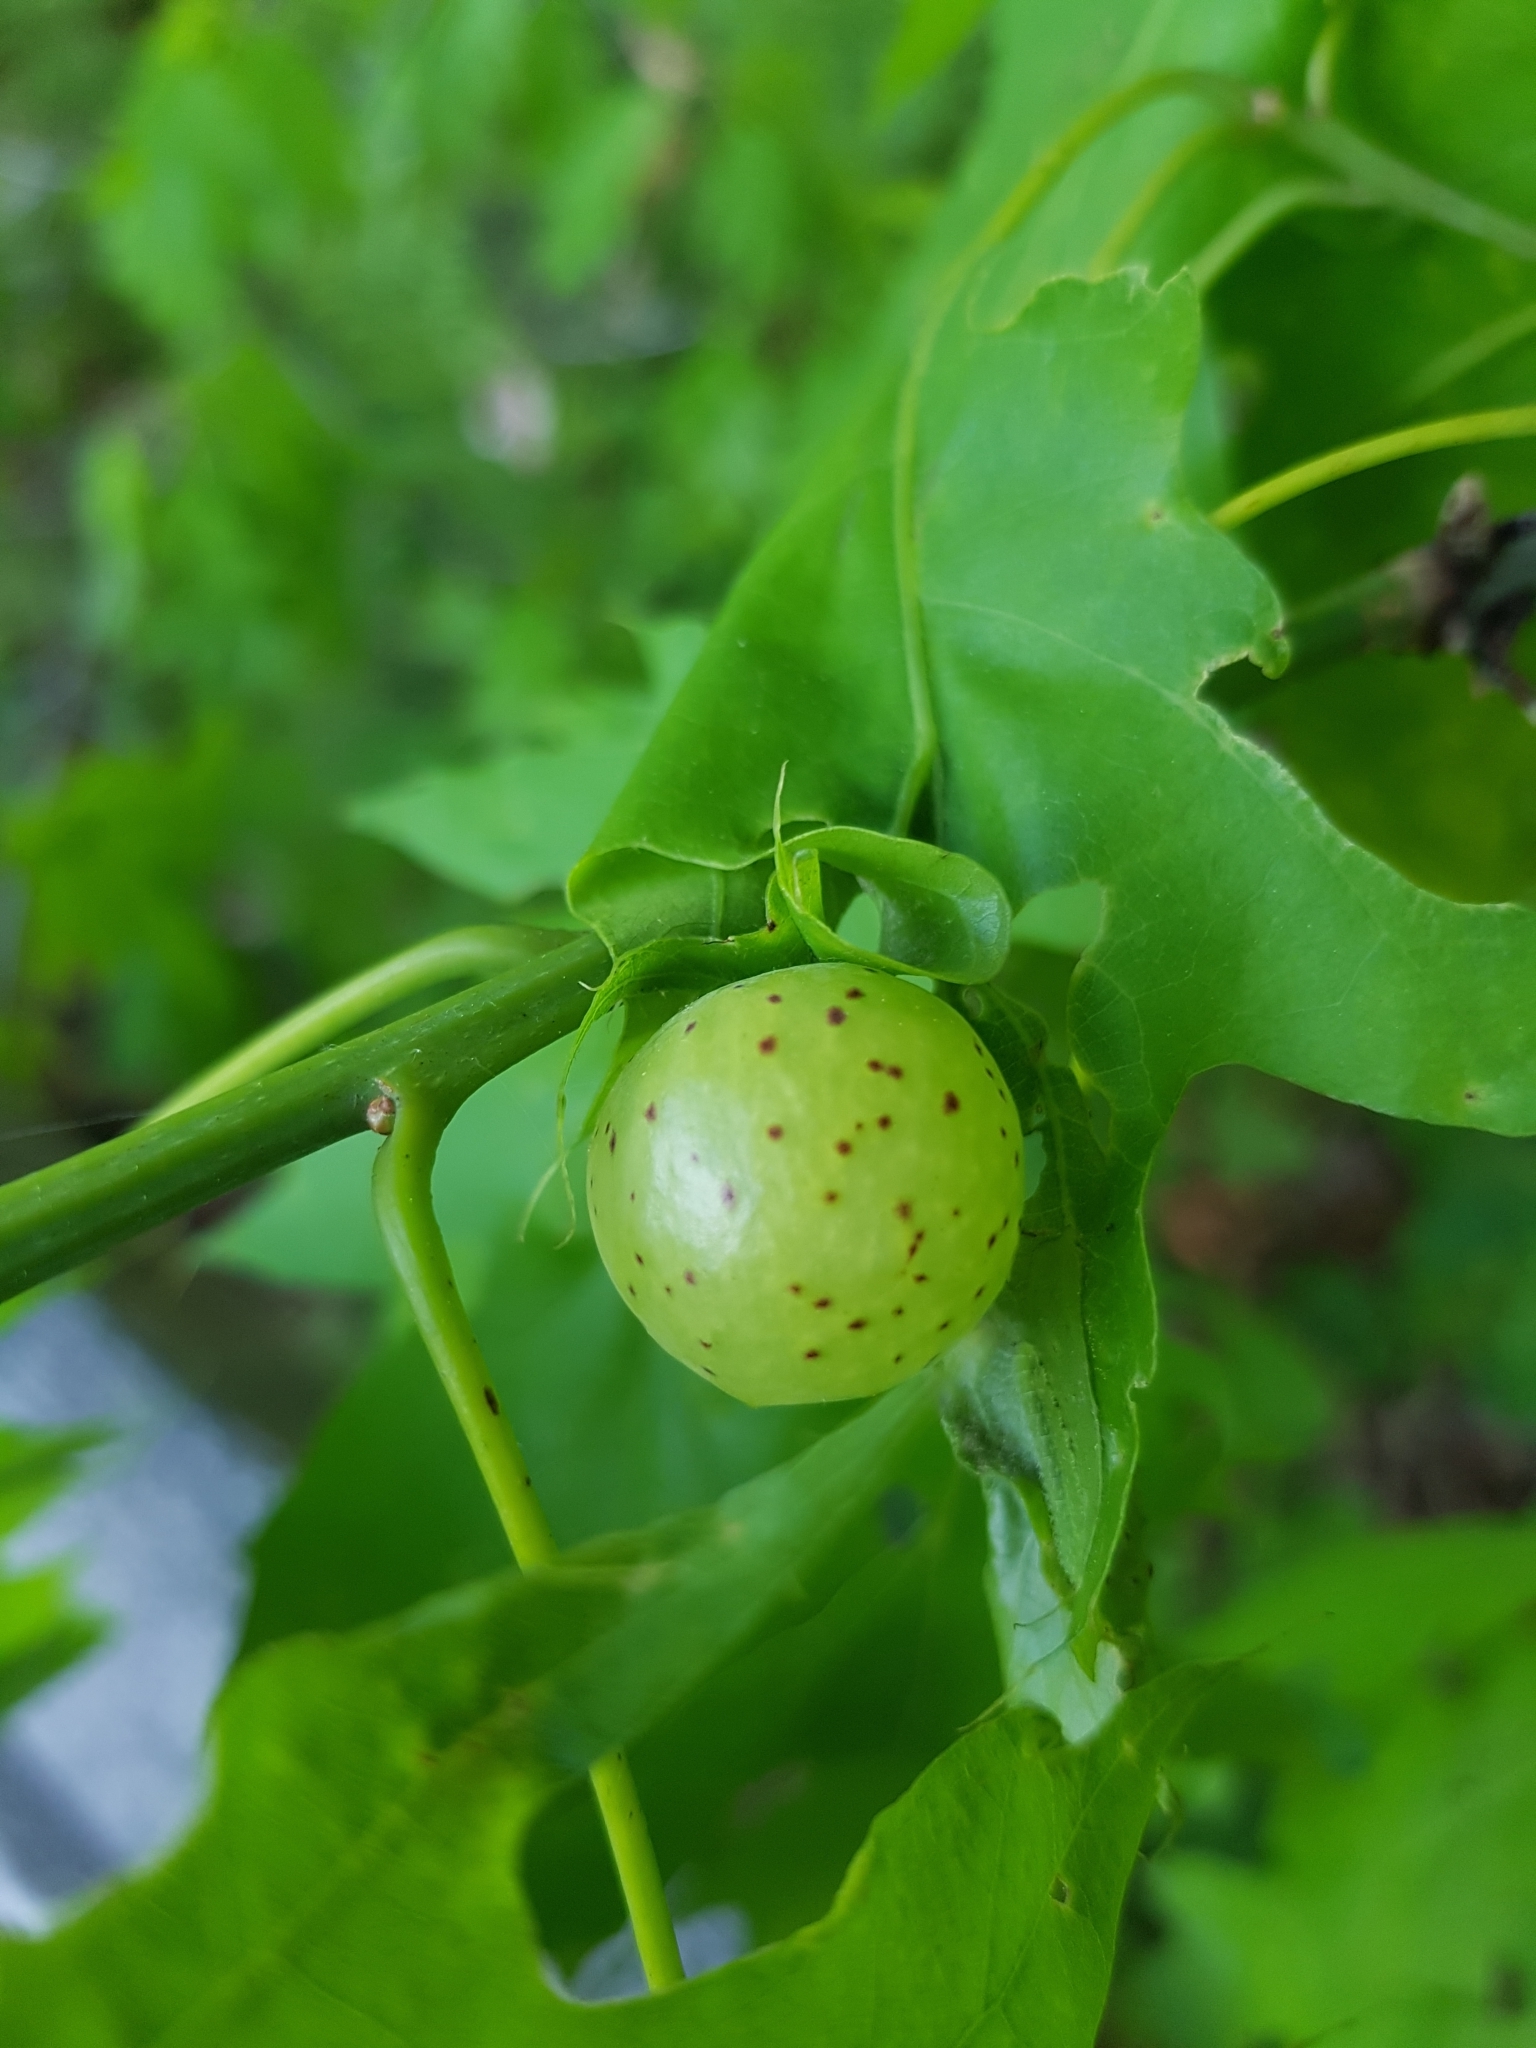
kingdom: Animalia
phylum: Arthropoda
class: Insecta
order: Hymenoptera
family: Cynipidae
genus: Amphibolips
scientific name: Amphibolips
